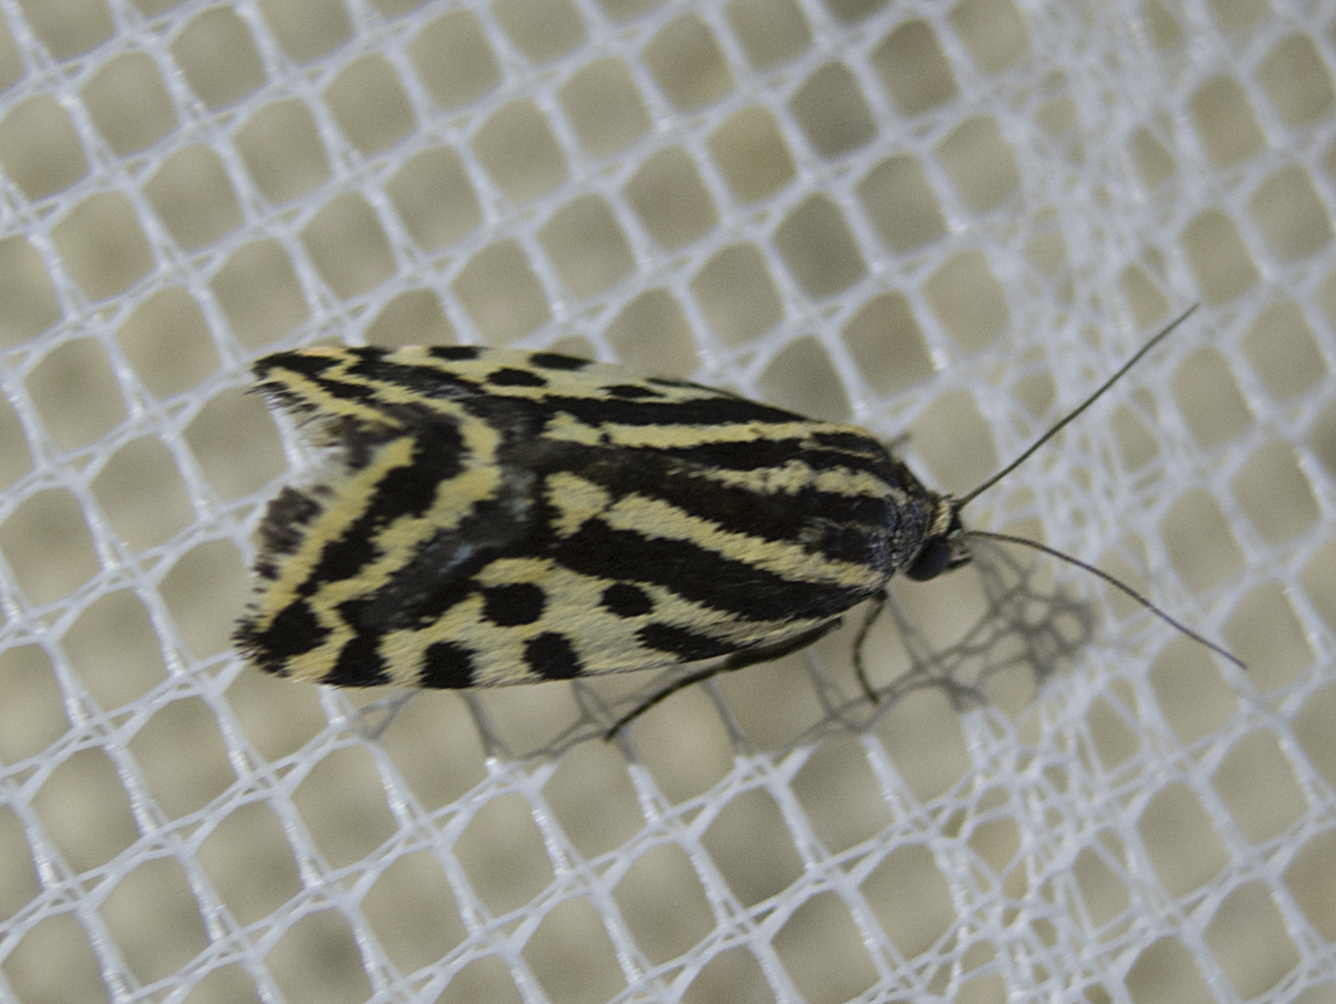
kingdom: Animalia
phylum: Arthropoda
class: Insecta
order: Lepidoptera
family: Noctuidae
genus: Acontia
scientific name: Acontia trabealis
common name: Spotted sulphur
